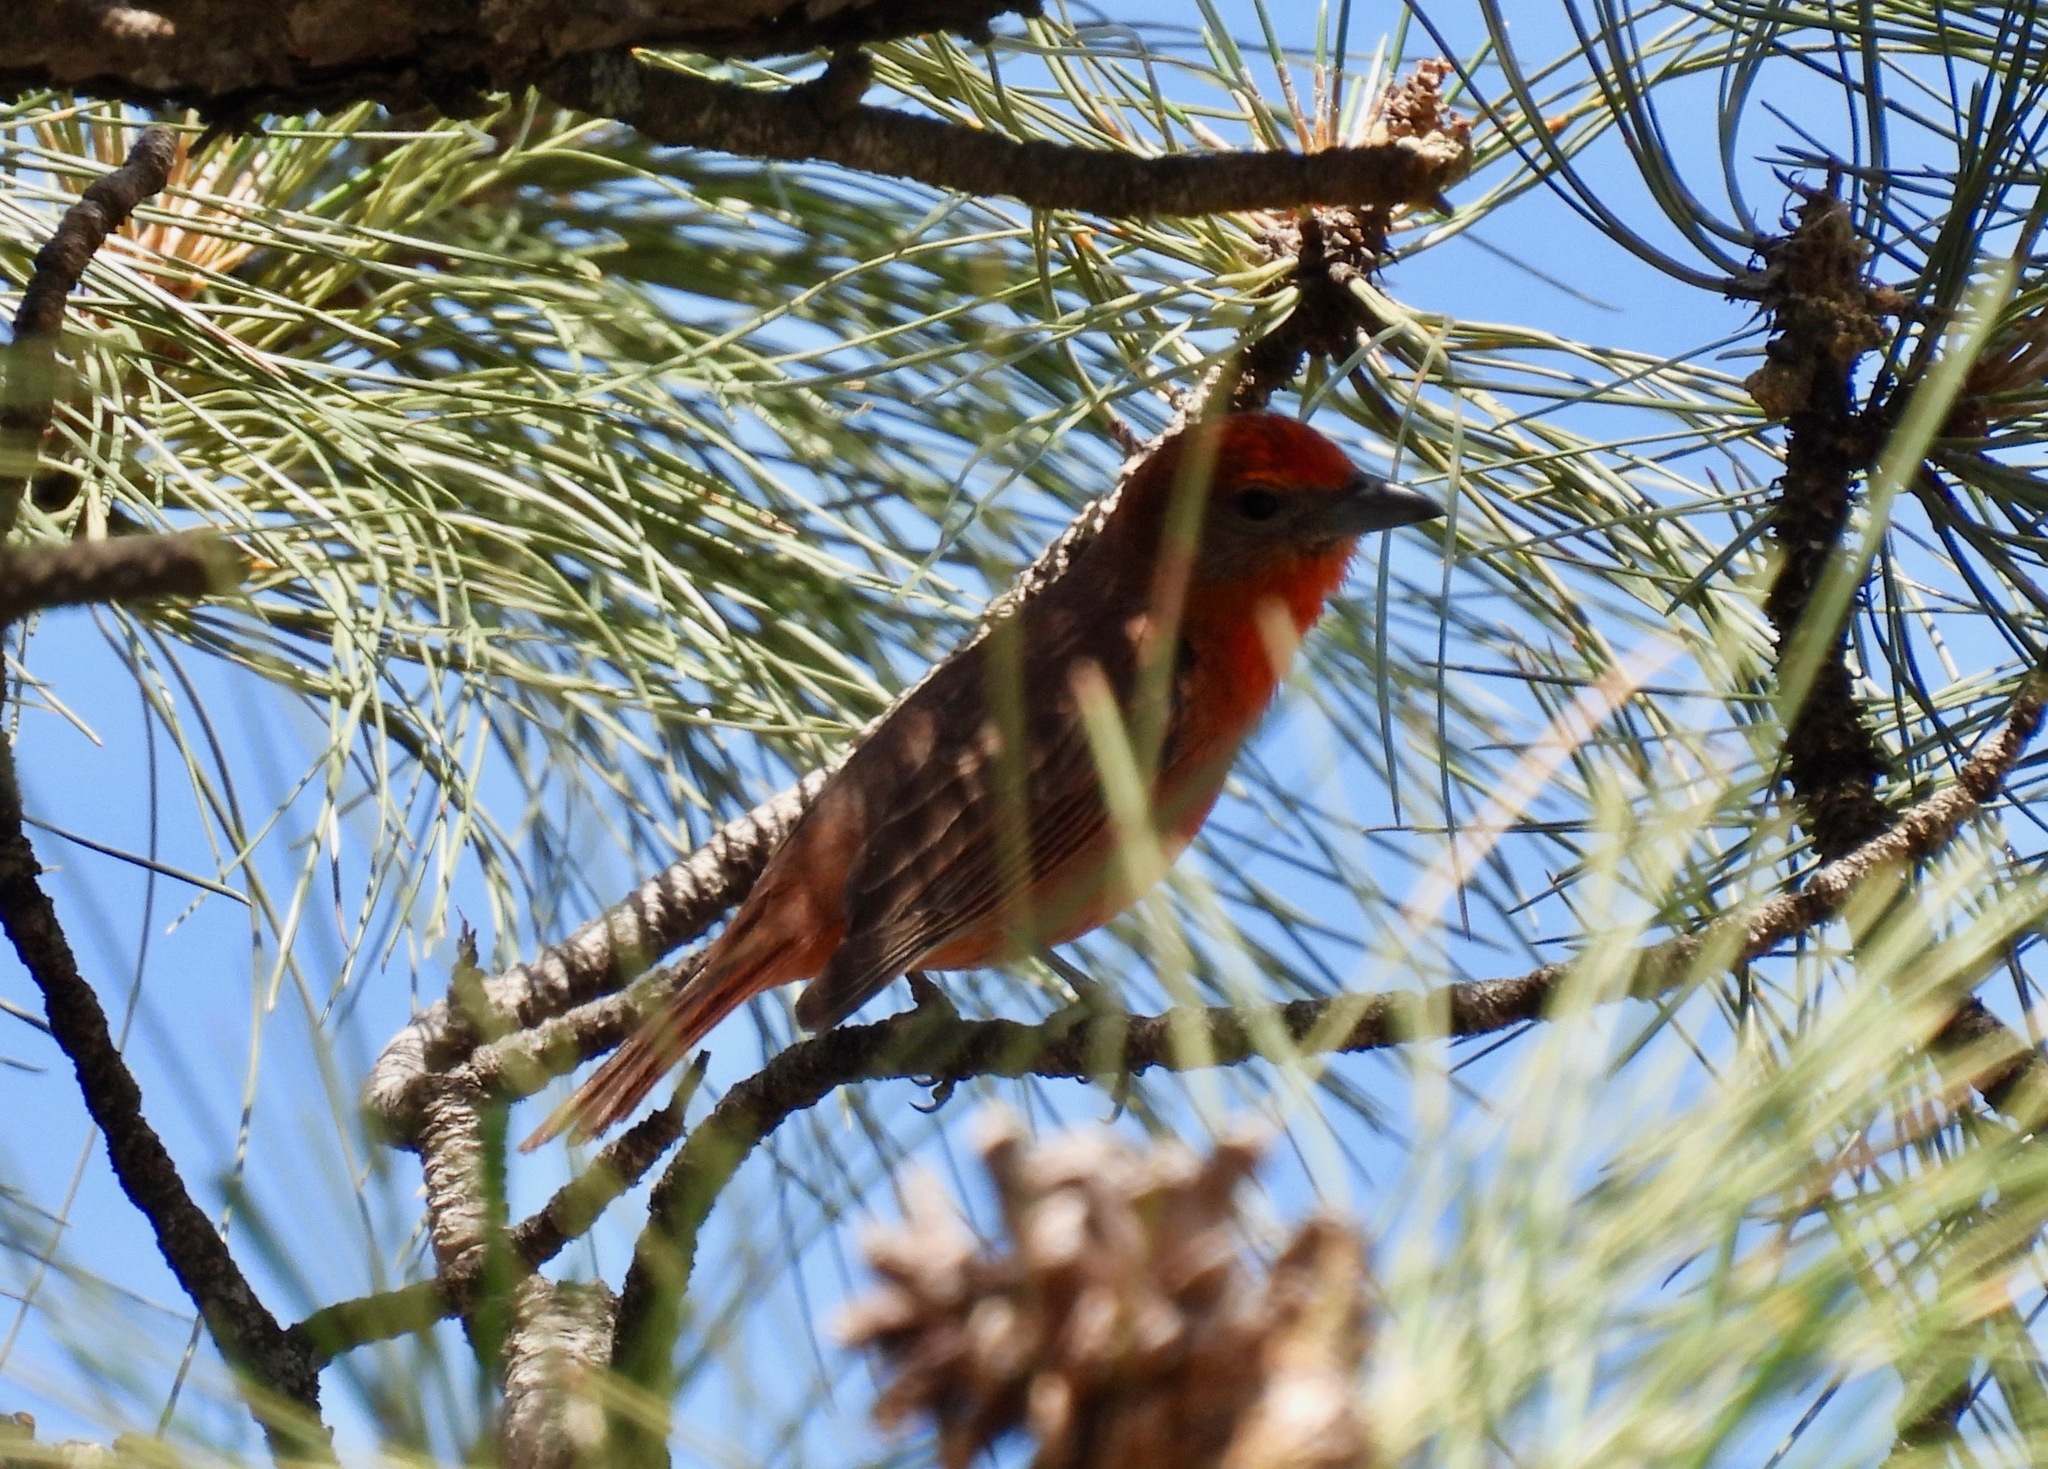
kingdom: Animalia
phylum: Chordata
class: Aves
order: Passeriformes
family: Cardinalidae
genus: Piranga
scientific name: Piranga flava
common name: Red tanager
